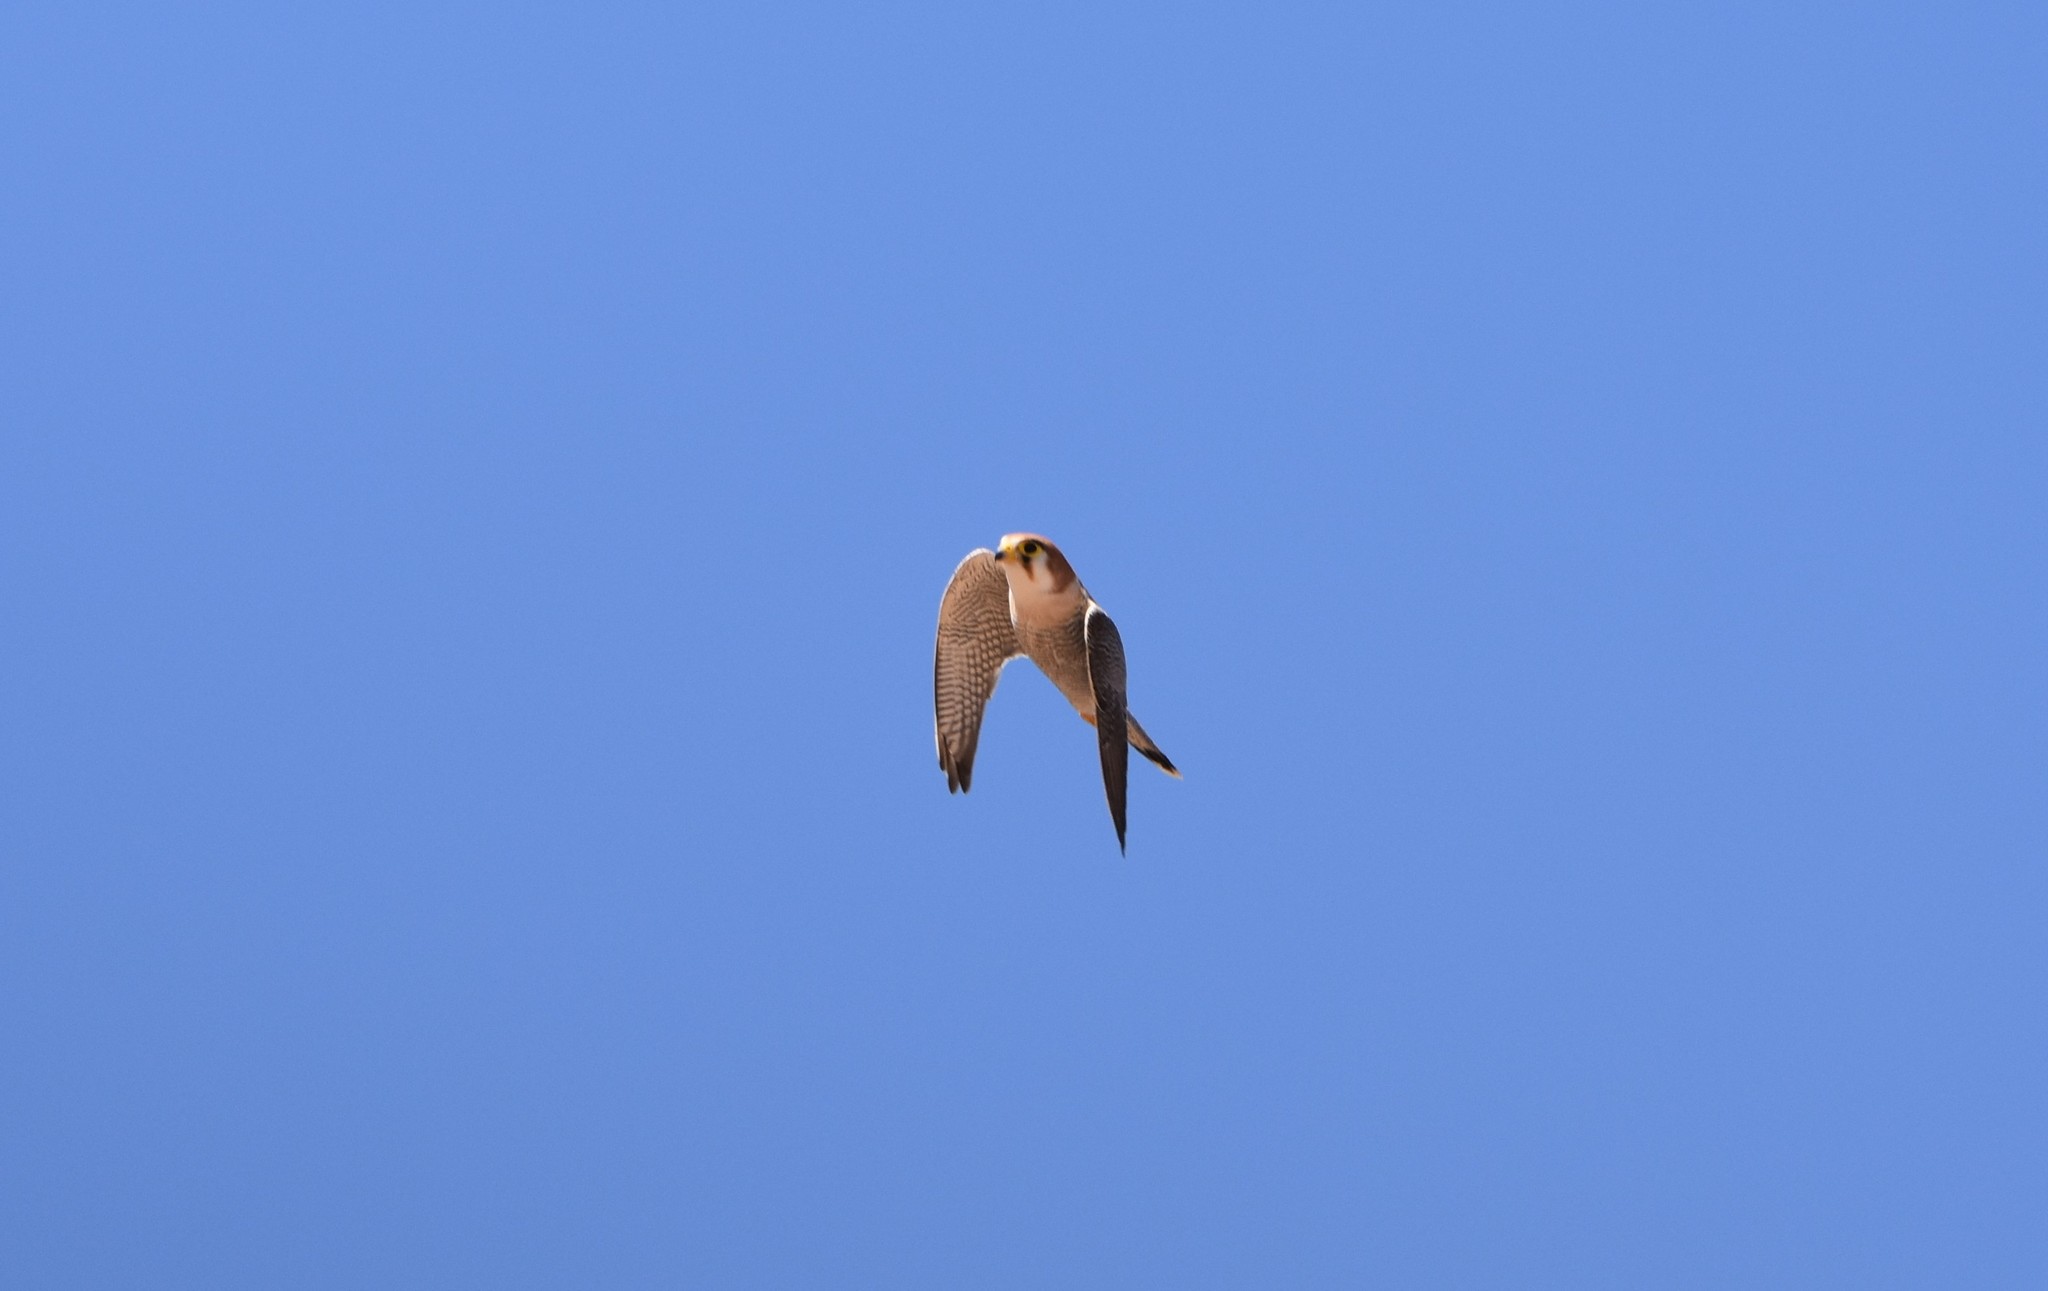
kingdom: Animalia
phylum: Chordata
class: Aves
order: Falconiformes
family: Falconidae
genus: Falco
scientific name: Falco chicquera
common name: Red-necked falcon
